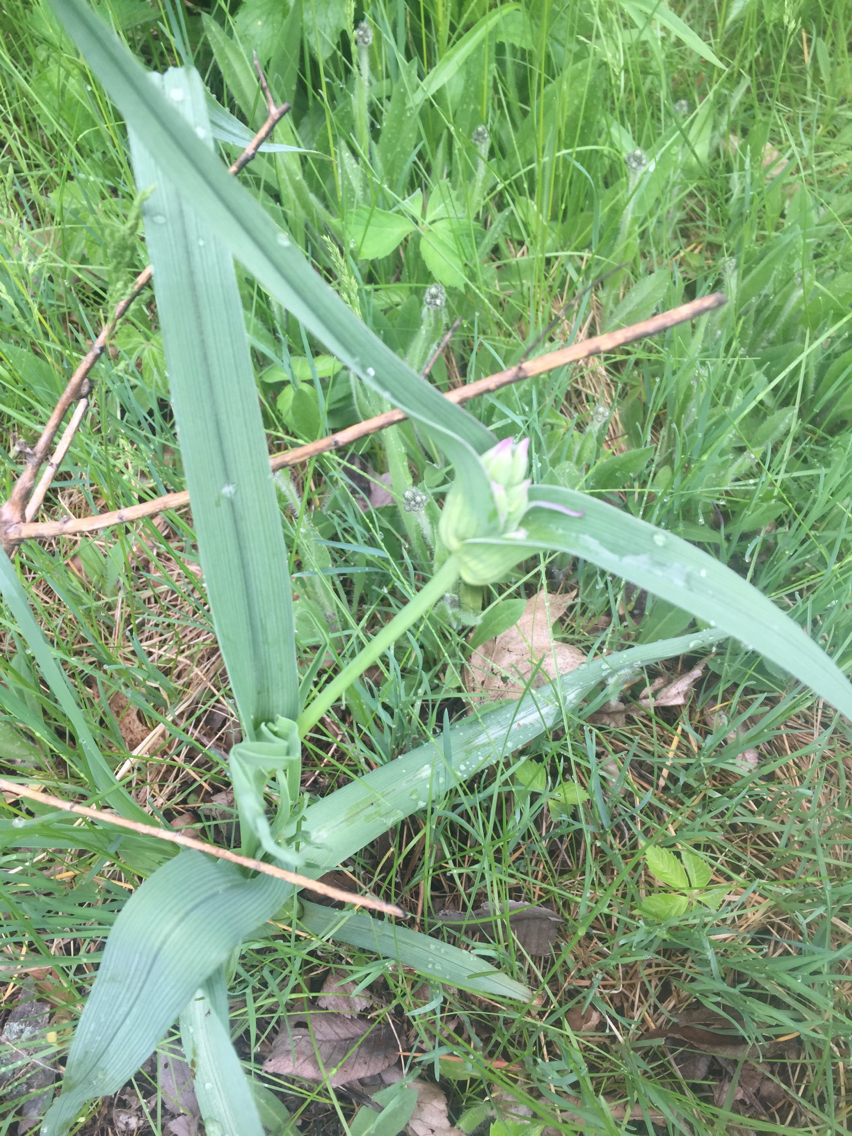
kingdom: Plantae
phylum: Tracheophyta
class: Liliopsida
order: Commelinales
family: Commelinaceae
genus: Tradescantia
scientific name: Tradescantia ohiensis
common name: Ohio spiderwort
